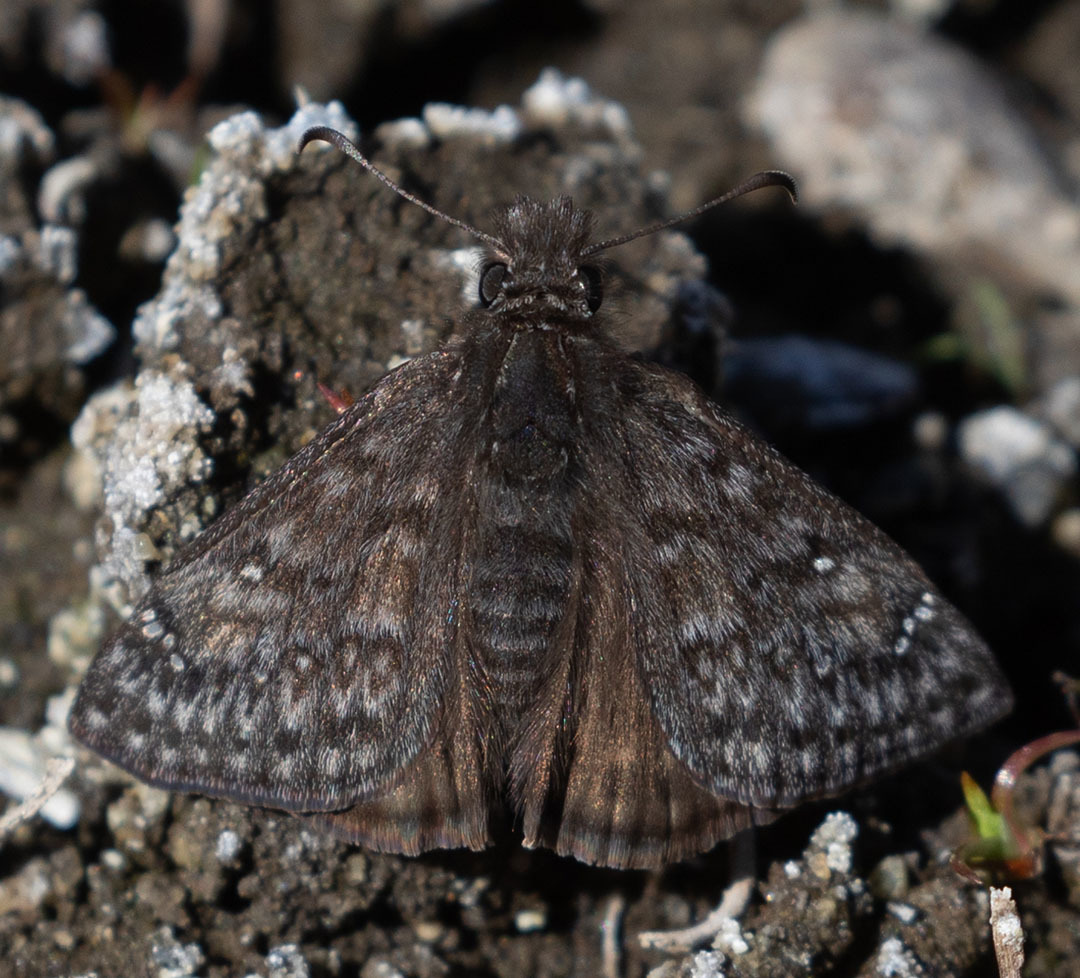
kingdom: Animalia
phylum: Arthropoda
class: Insecta
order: Lepidoptera
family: Hesperiidae
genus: Erynnis
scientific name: Erynnis propertius
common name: Propertius duskywing
